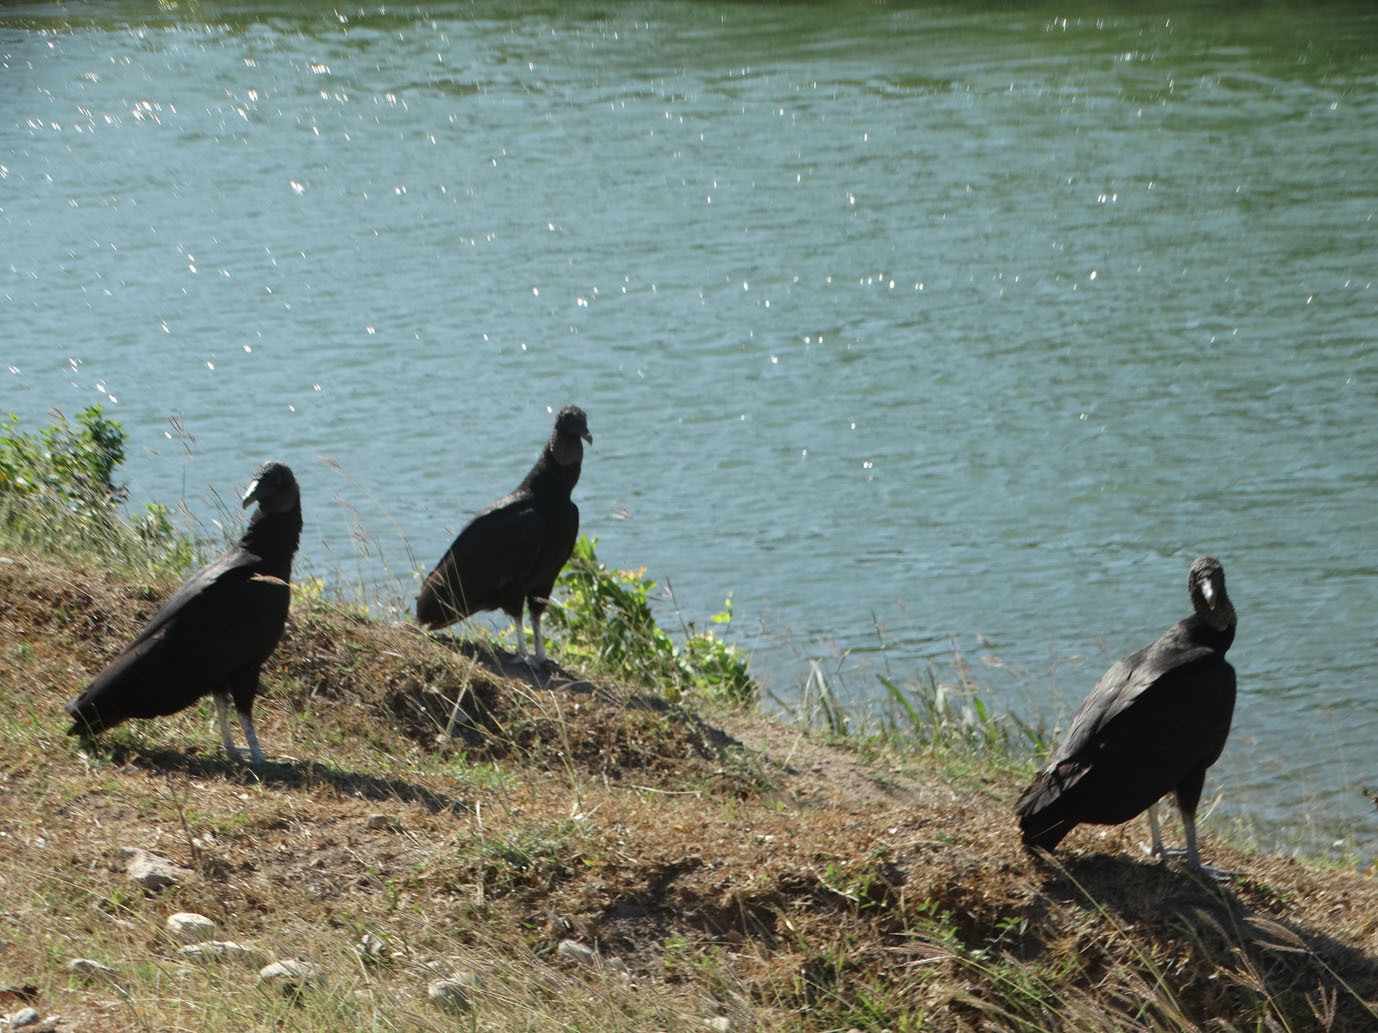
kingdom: Animalia
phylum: Chordata
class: Aves
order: Accipitriformes
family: Cathartidae
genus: Coragyps
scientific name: Coragyps atratus
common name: Black vulture
